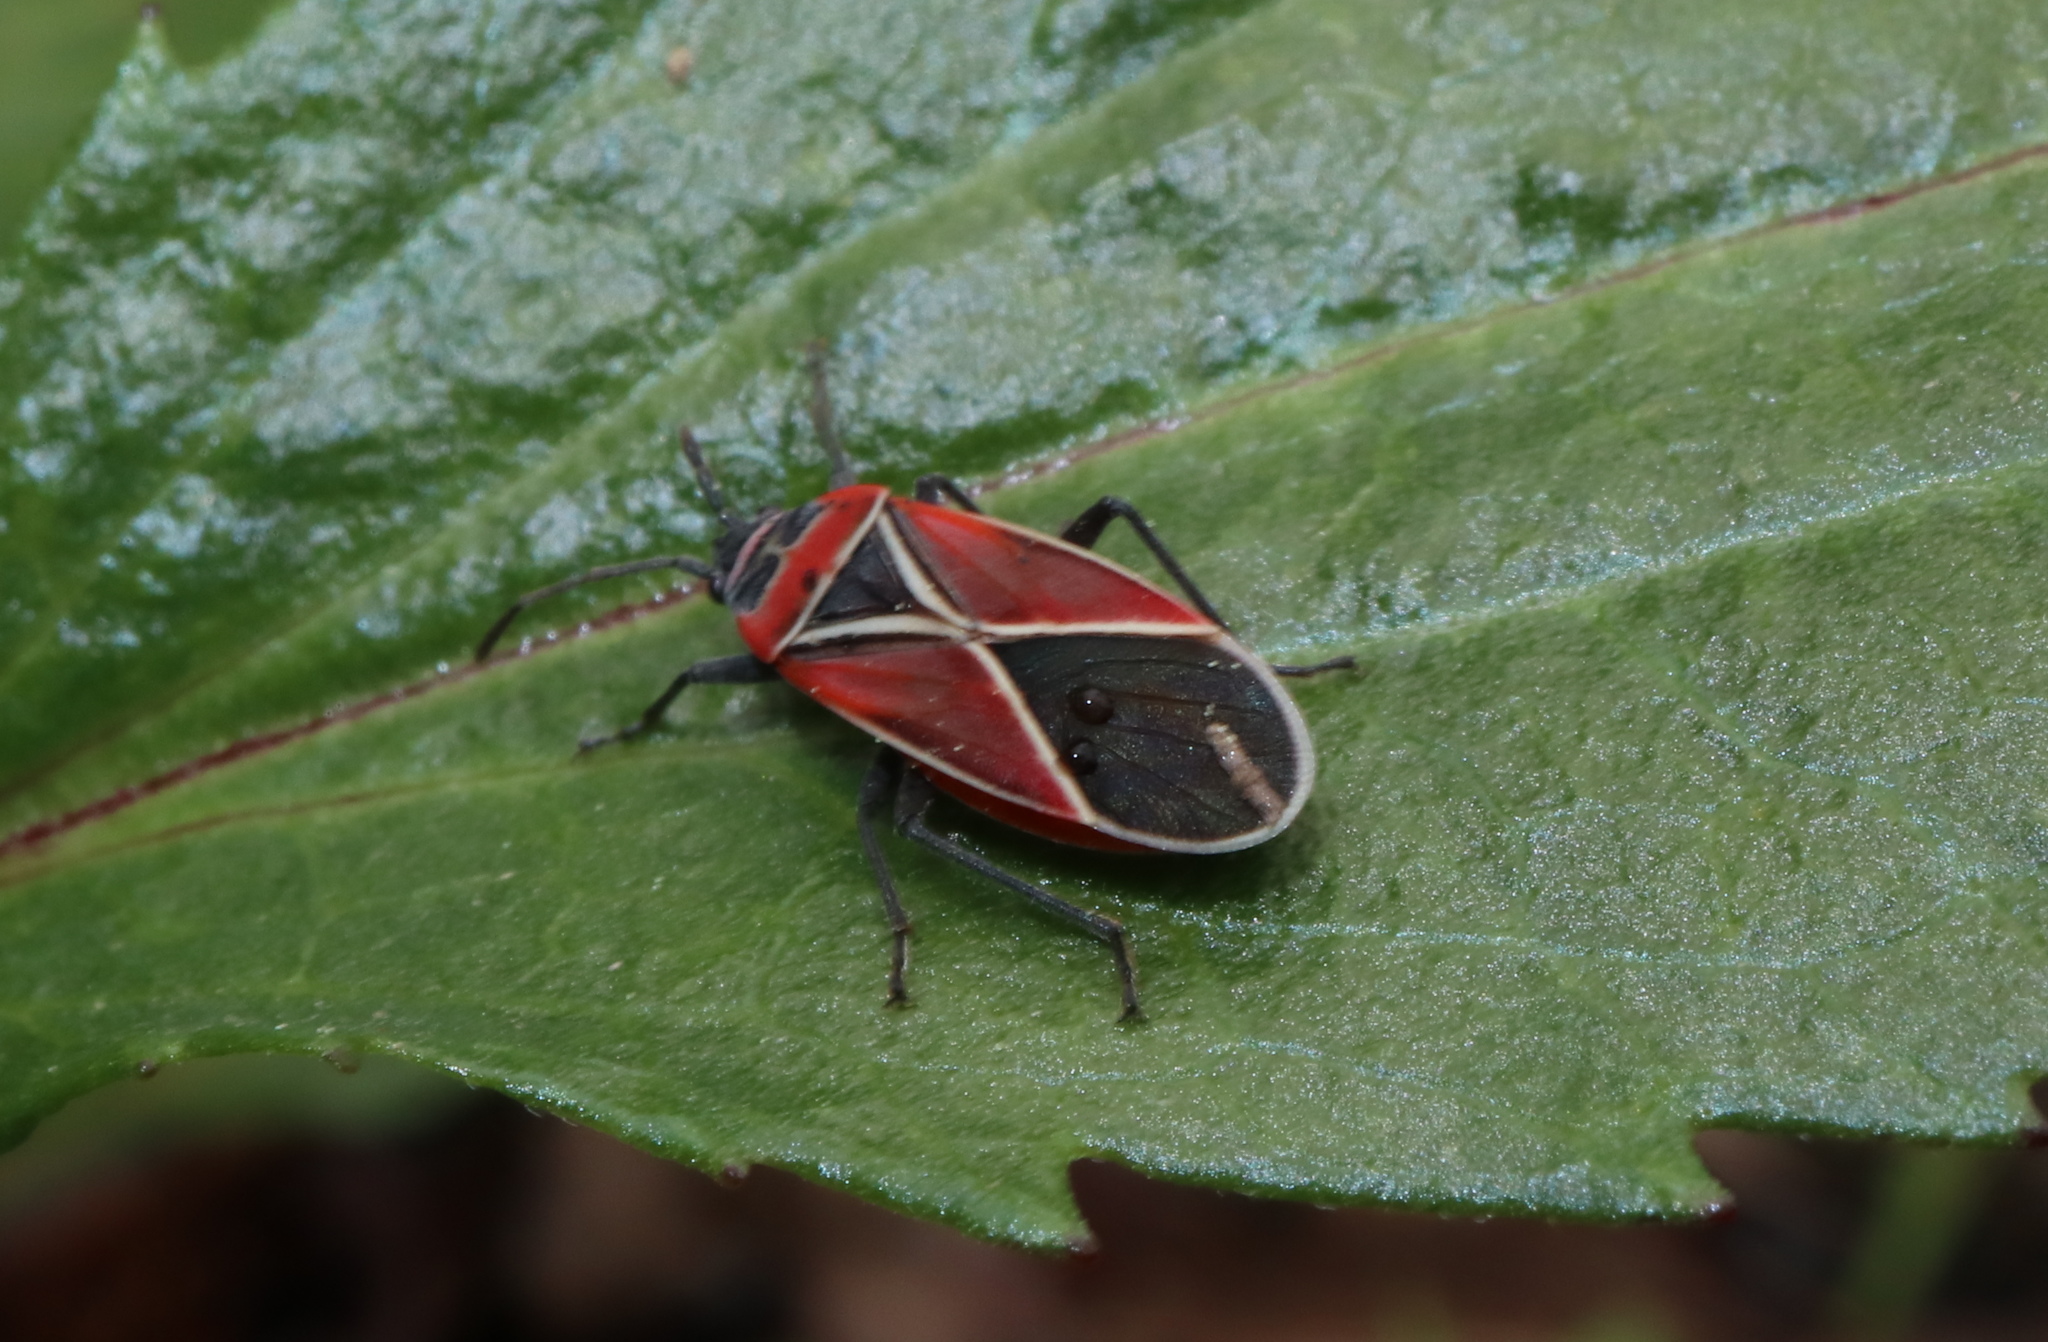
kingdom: Animalia
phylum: Arthropoda
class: Insecta
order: Hemiptera
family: Lygaeidae
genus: Neacoryphus
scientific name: Neacoryphus bicrucis
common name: Lygaeid bug
